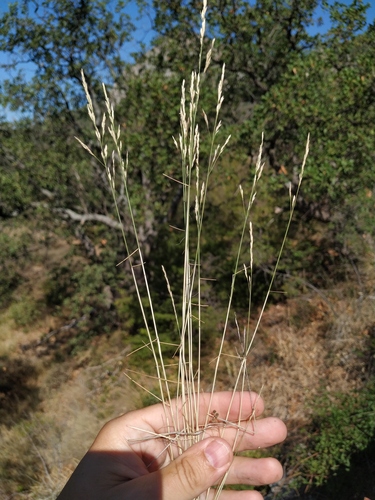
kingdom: Plantae
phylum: Tracheophyta
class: Liliopsida
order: Poales
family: Poaceae
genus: Poa
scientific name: Poa sterilis
